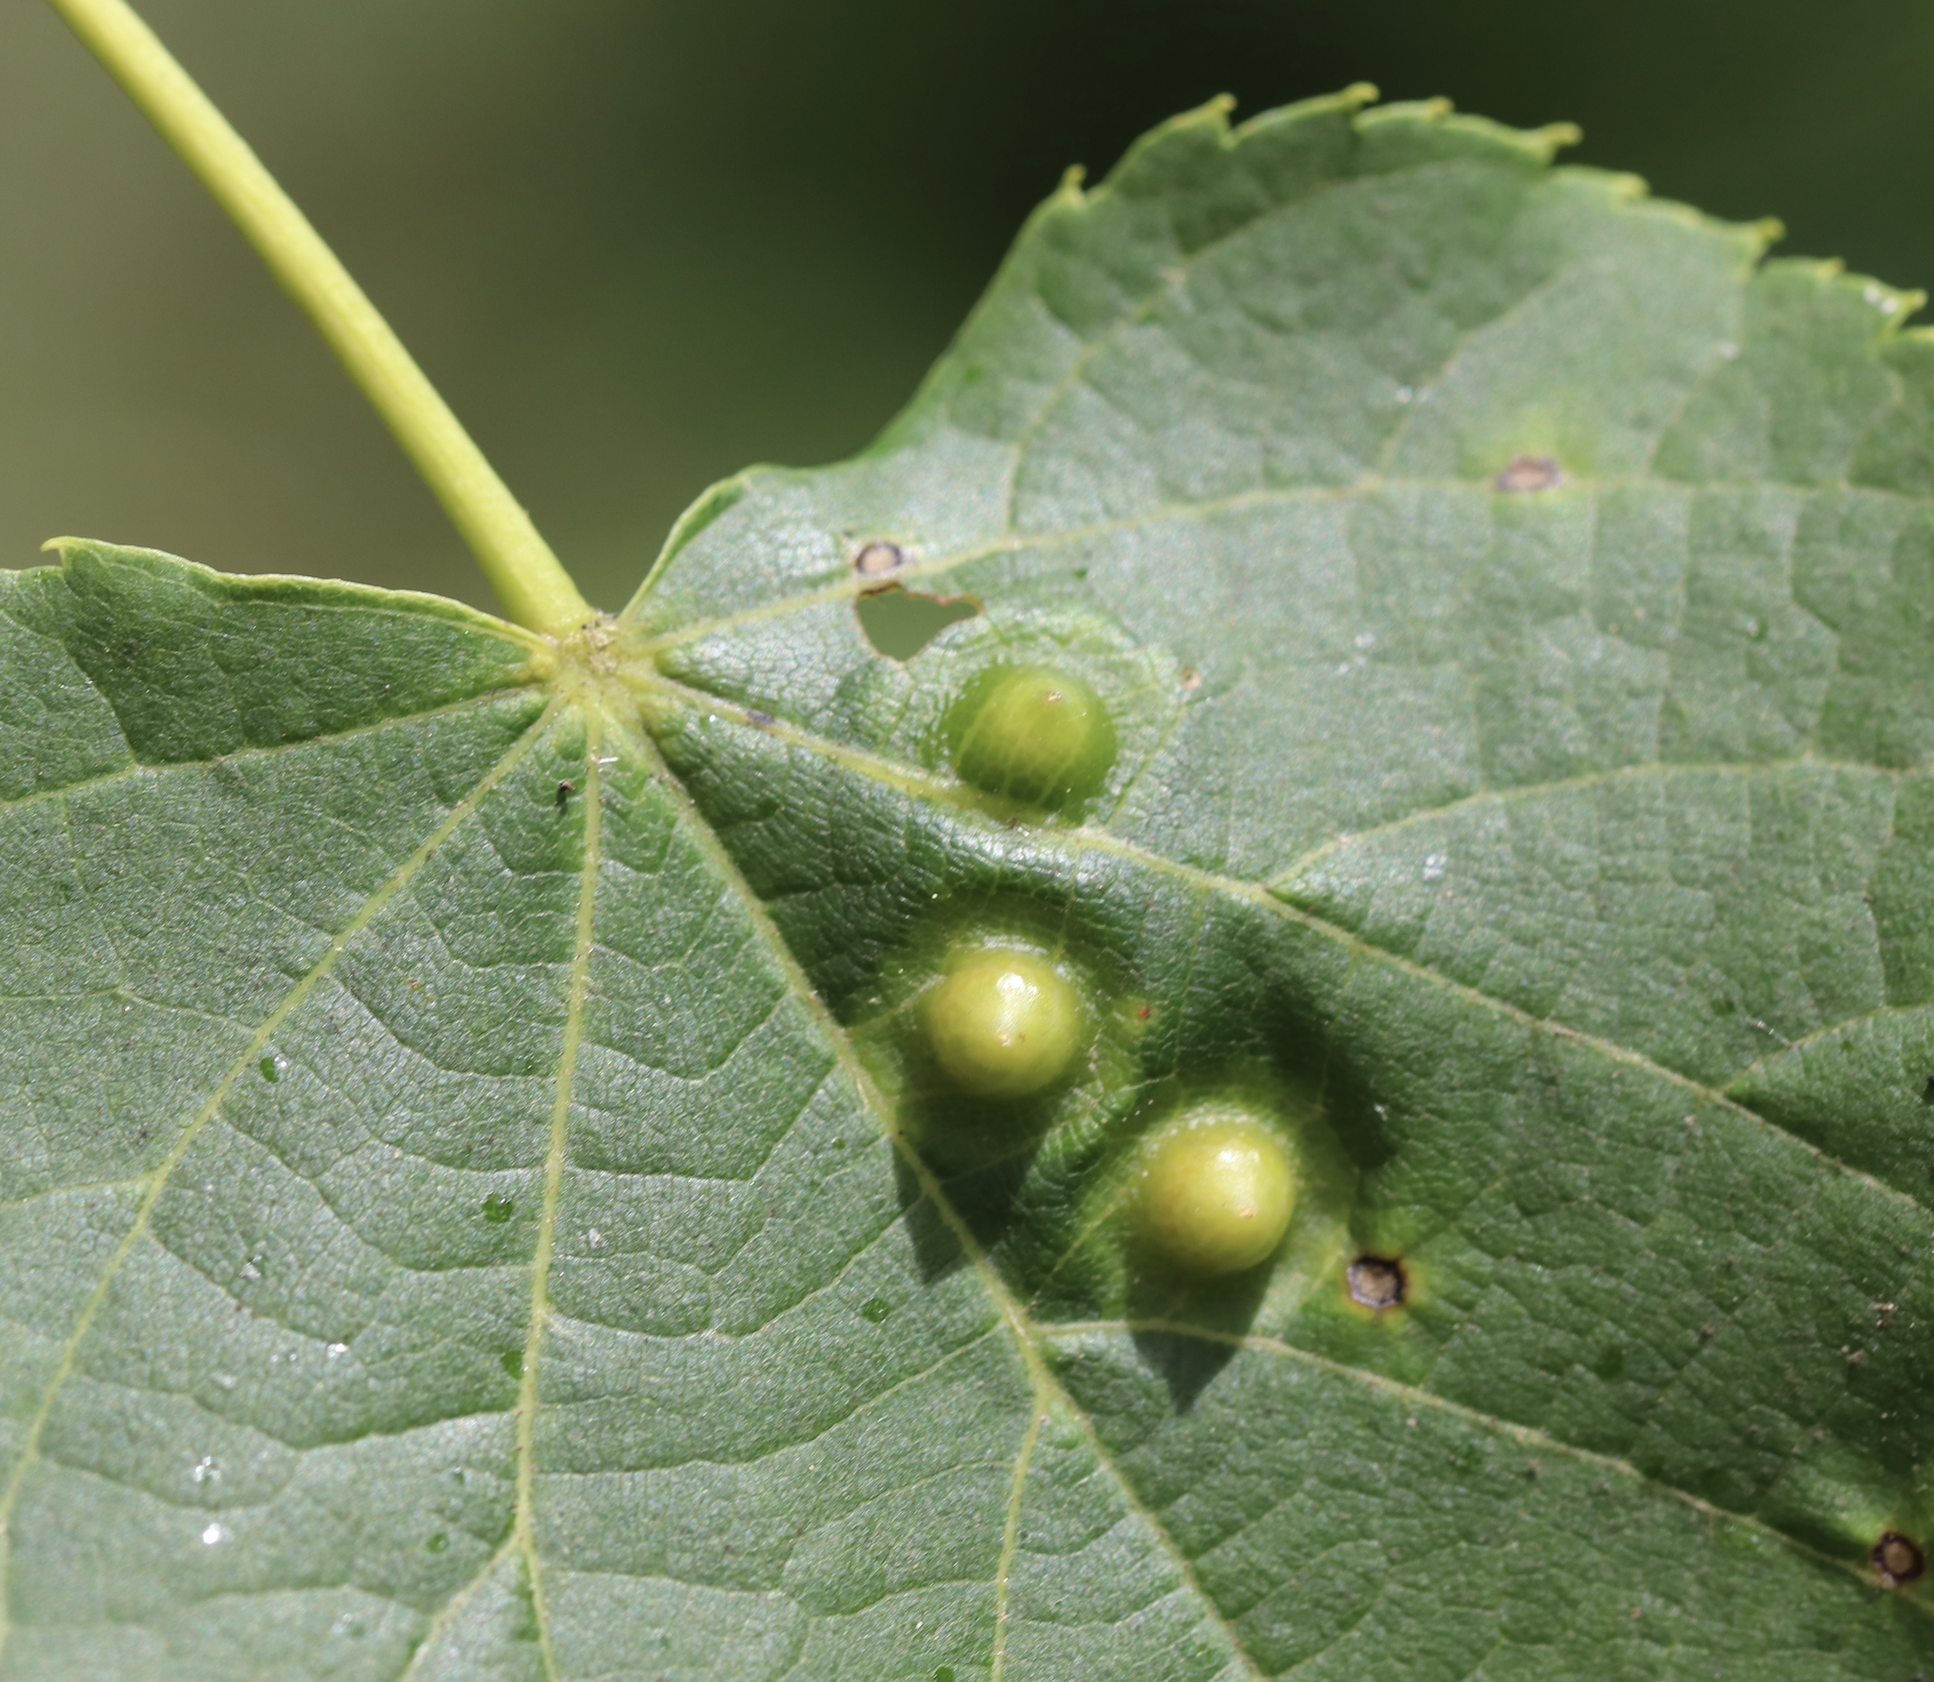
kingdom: Animalia
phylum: Arthropoda
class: Insecta
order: Diptera
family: Cecidomyiidae
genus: Didymomyia
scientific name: Didymomyia tiliacea
